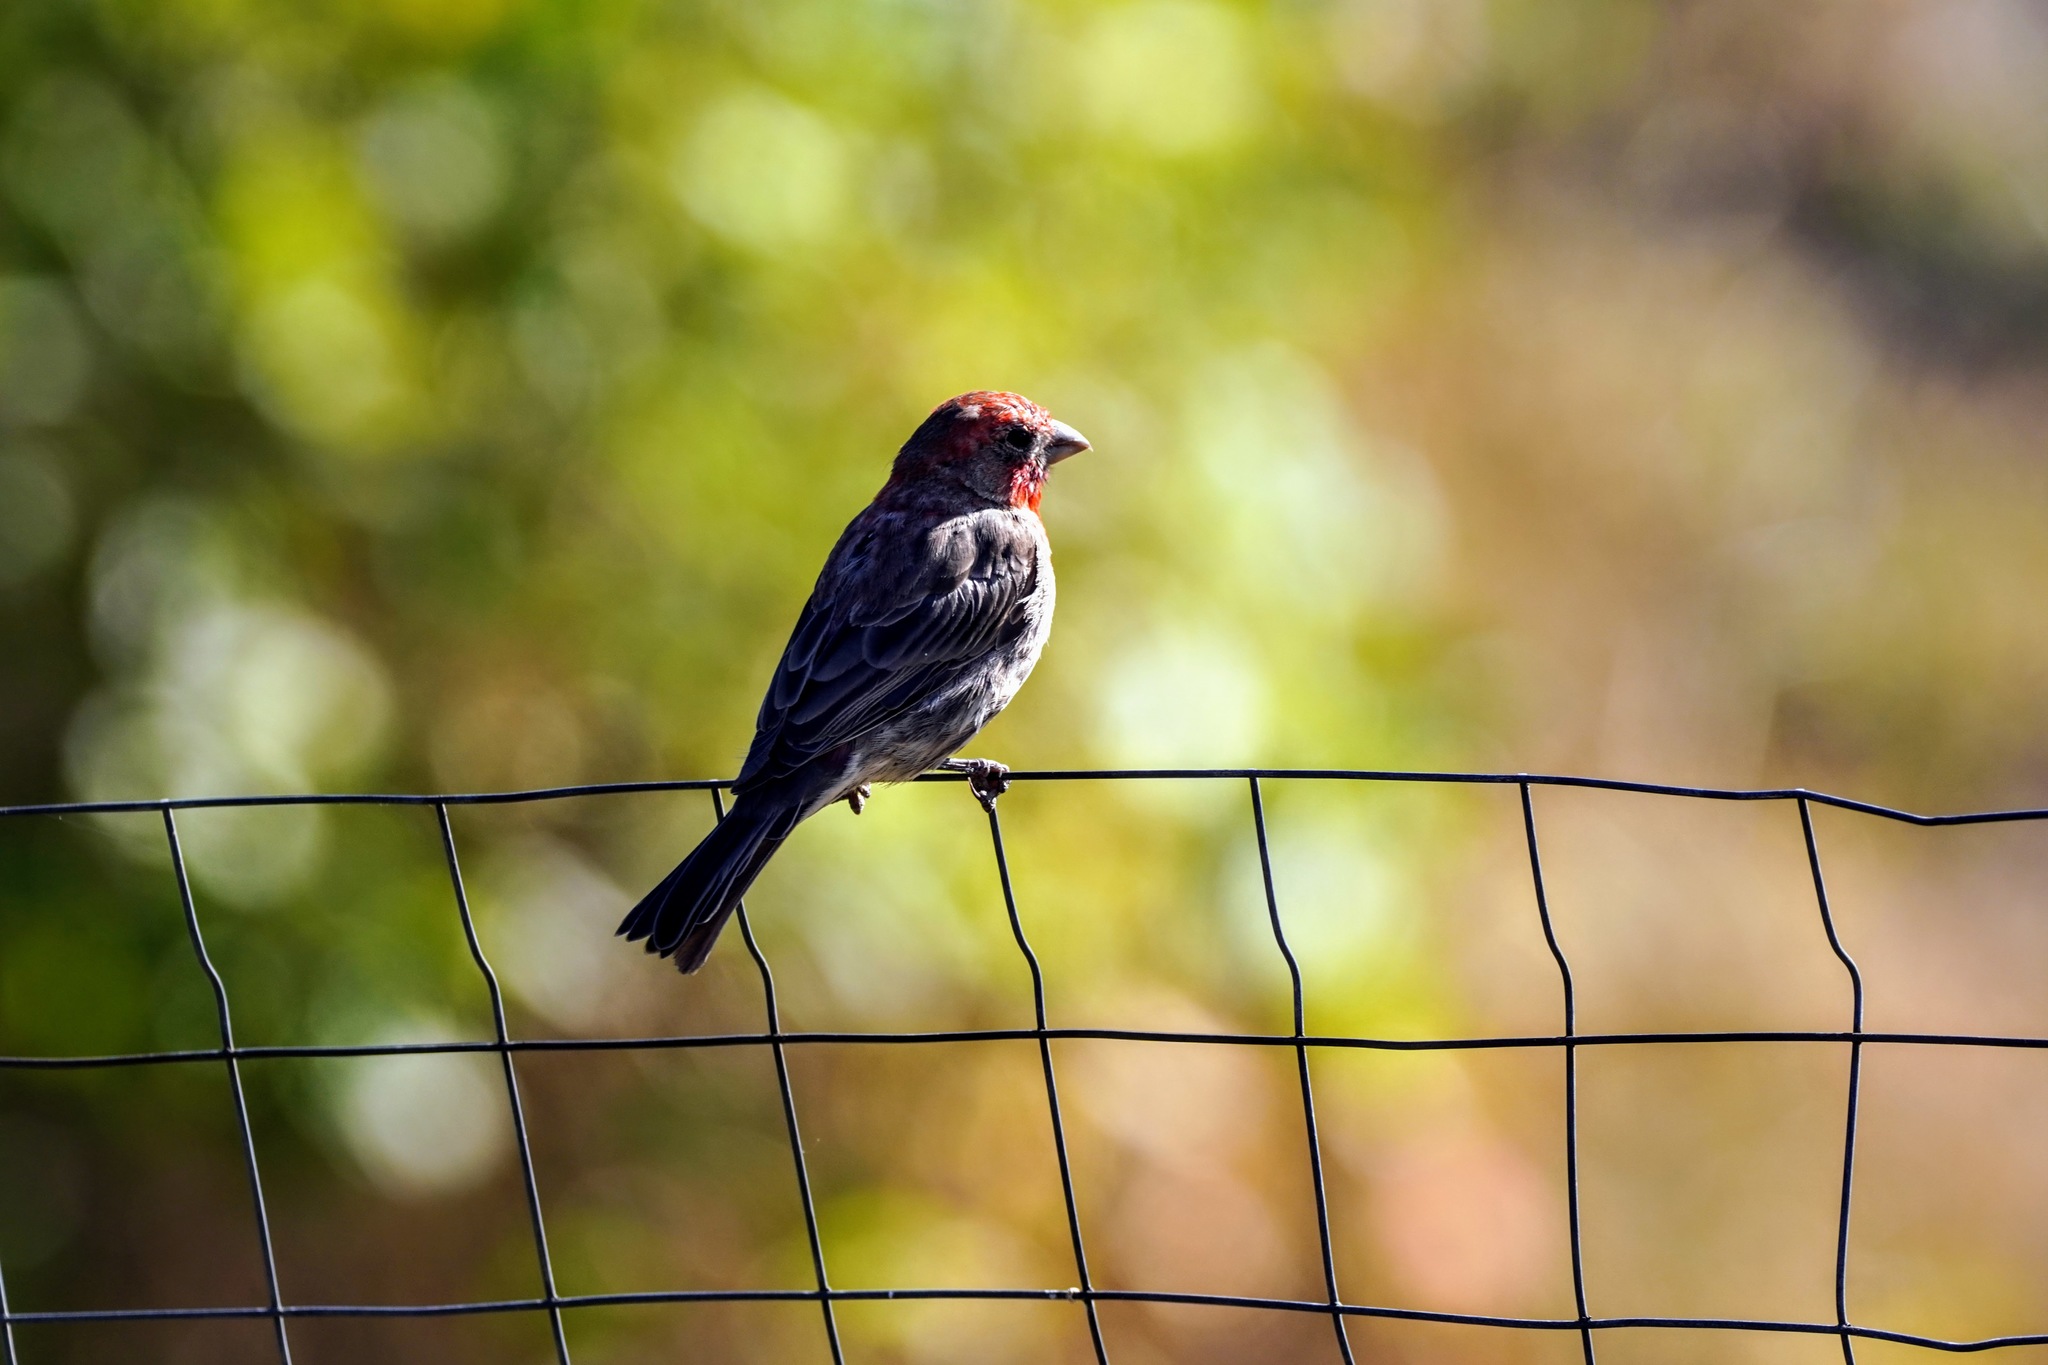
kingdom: Animalia
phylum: Chordata
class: Aves
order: Passeriformes
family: Fringillidae
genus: Haemorhous
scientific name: Haemorhous mexicanus
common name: House finch
